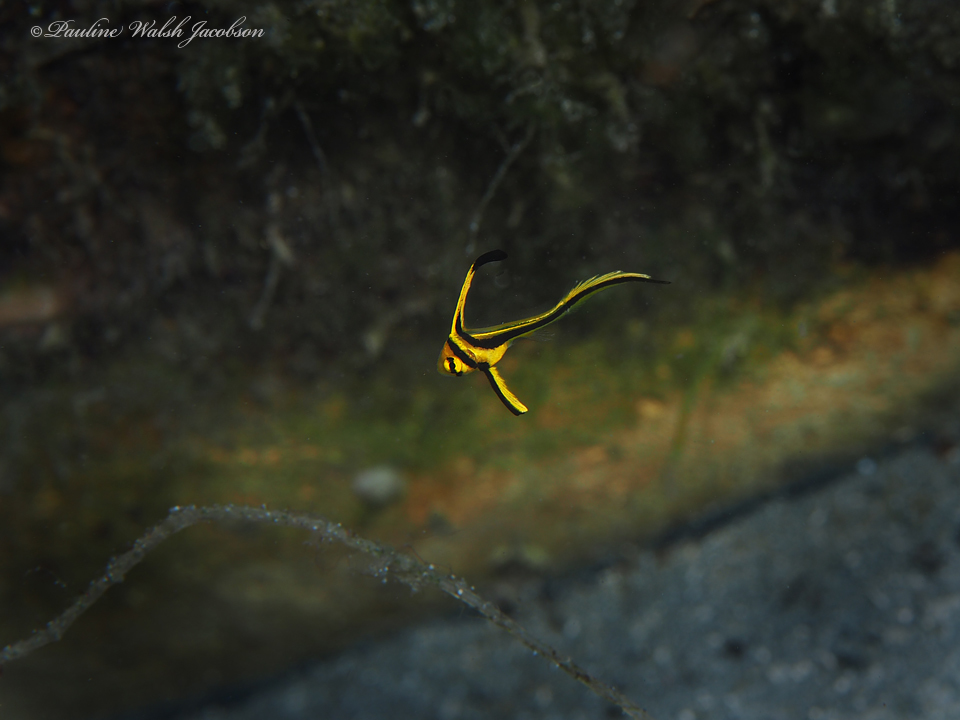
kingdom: Animalia
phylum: Chordata
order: Perciformes
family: Sciaenidae
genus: Equetus
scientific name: Equetus lanceolatus
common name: Jackknife fish
